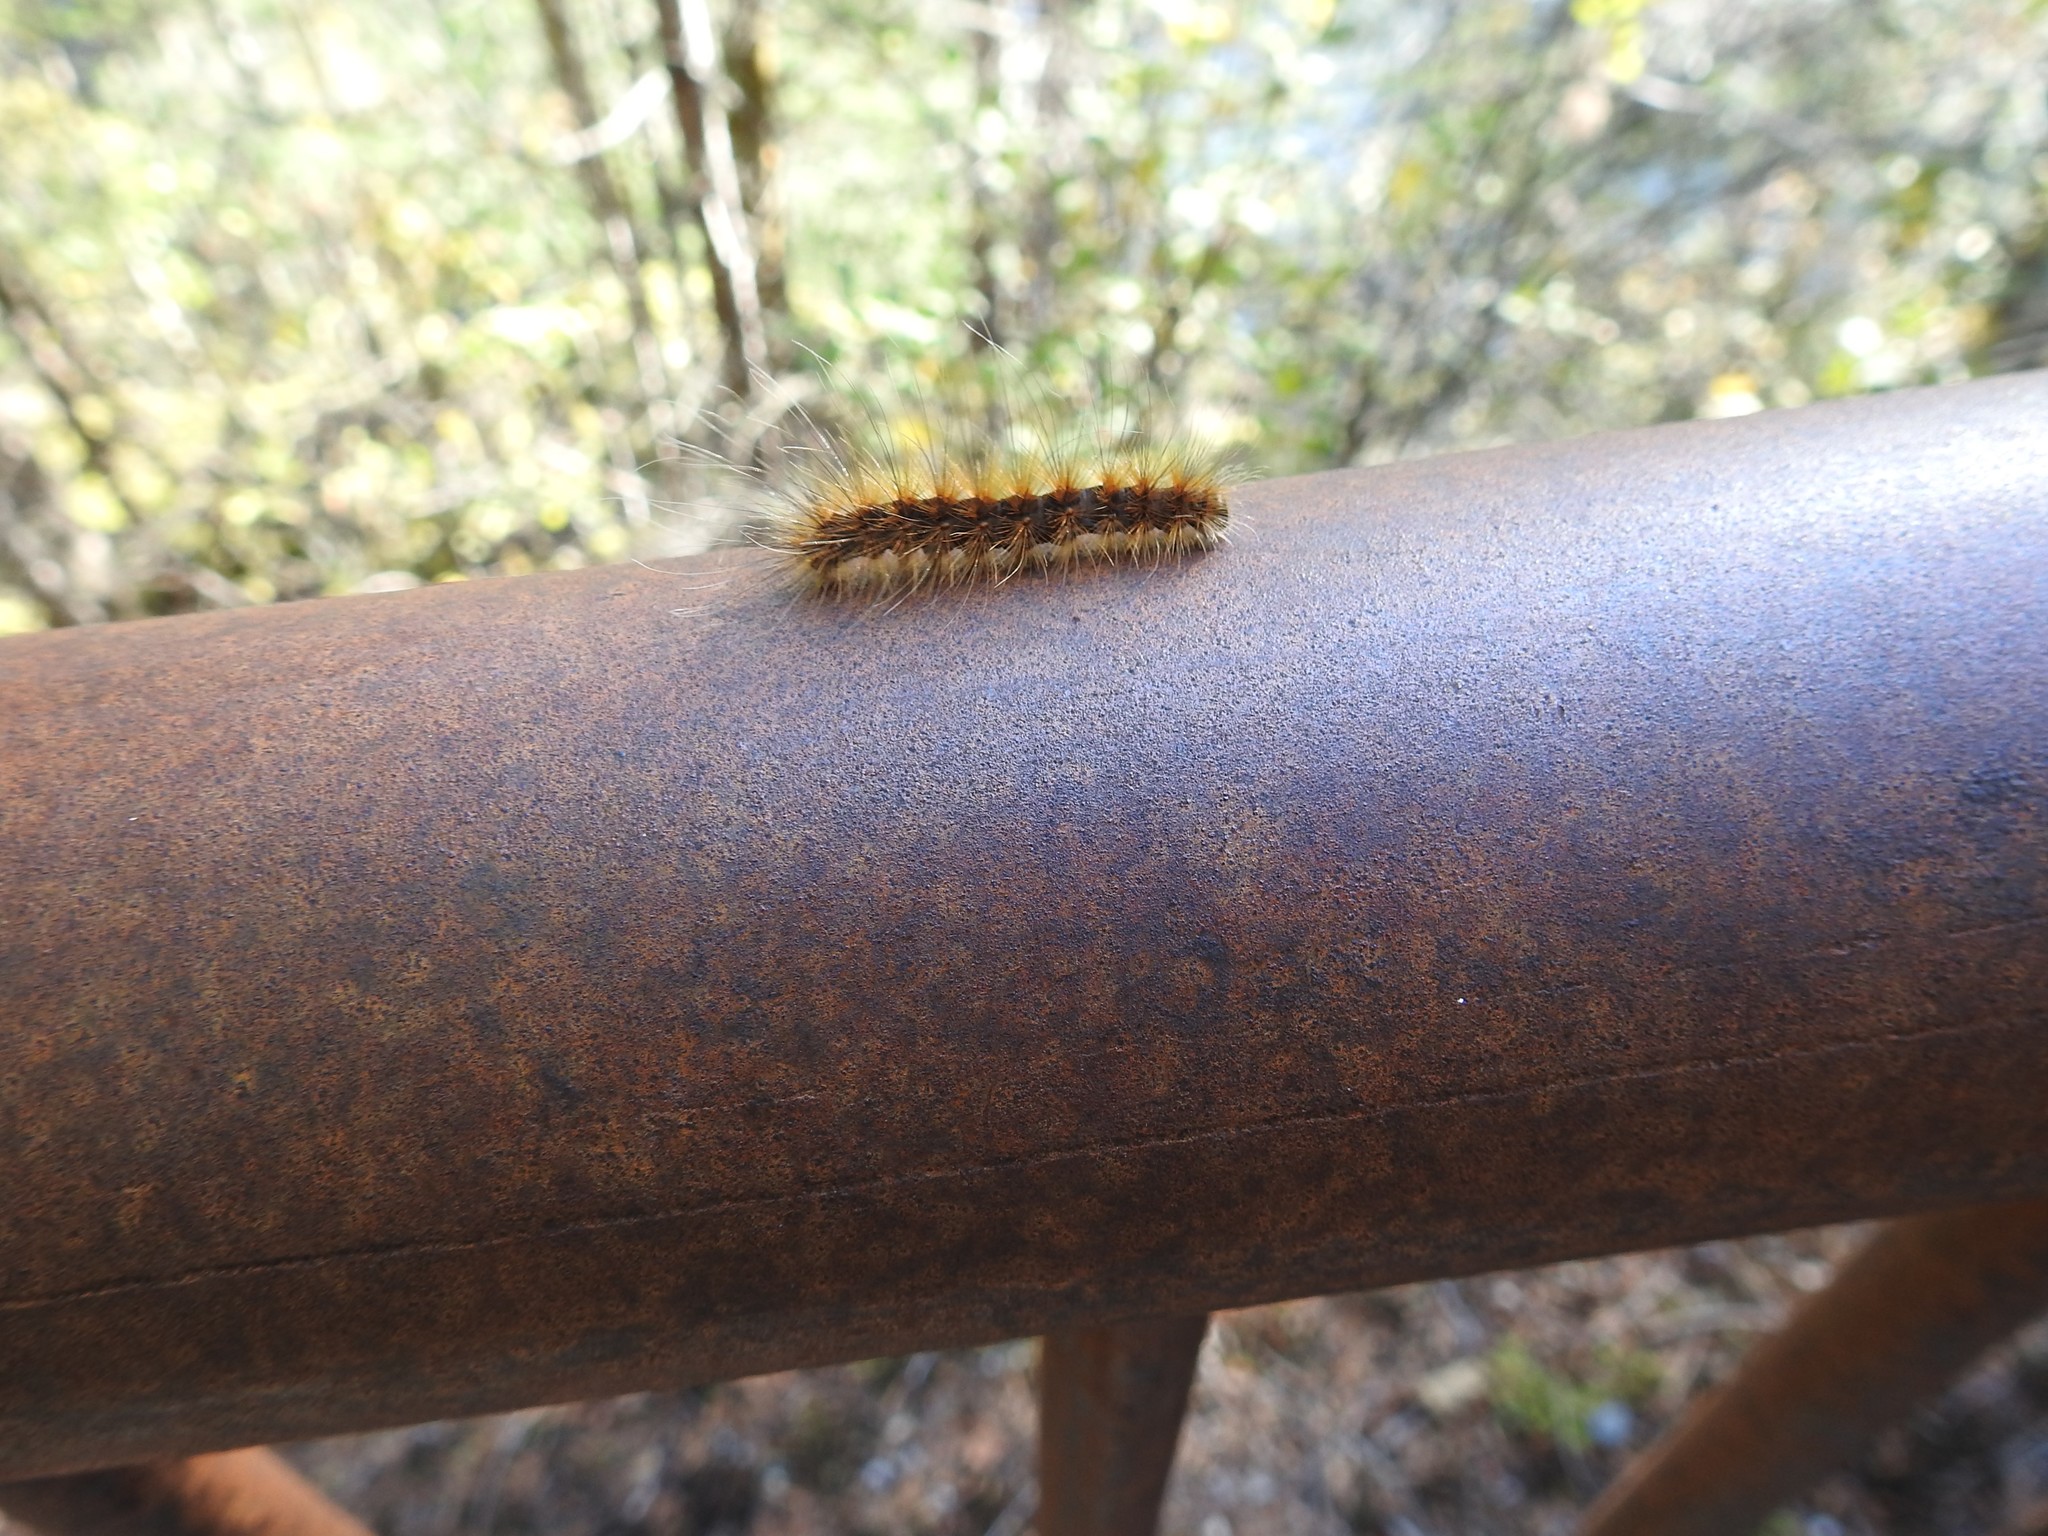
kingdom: Animalia
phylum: Arthropoda
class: Insecta
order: Lepidoptera
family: Erebidae
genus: Hyphantria
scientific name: Hyphantria cunea
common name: American white moth
